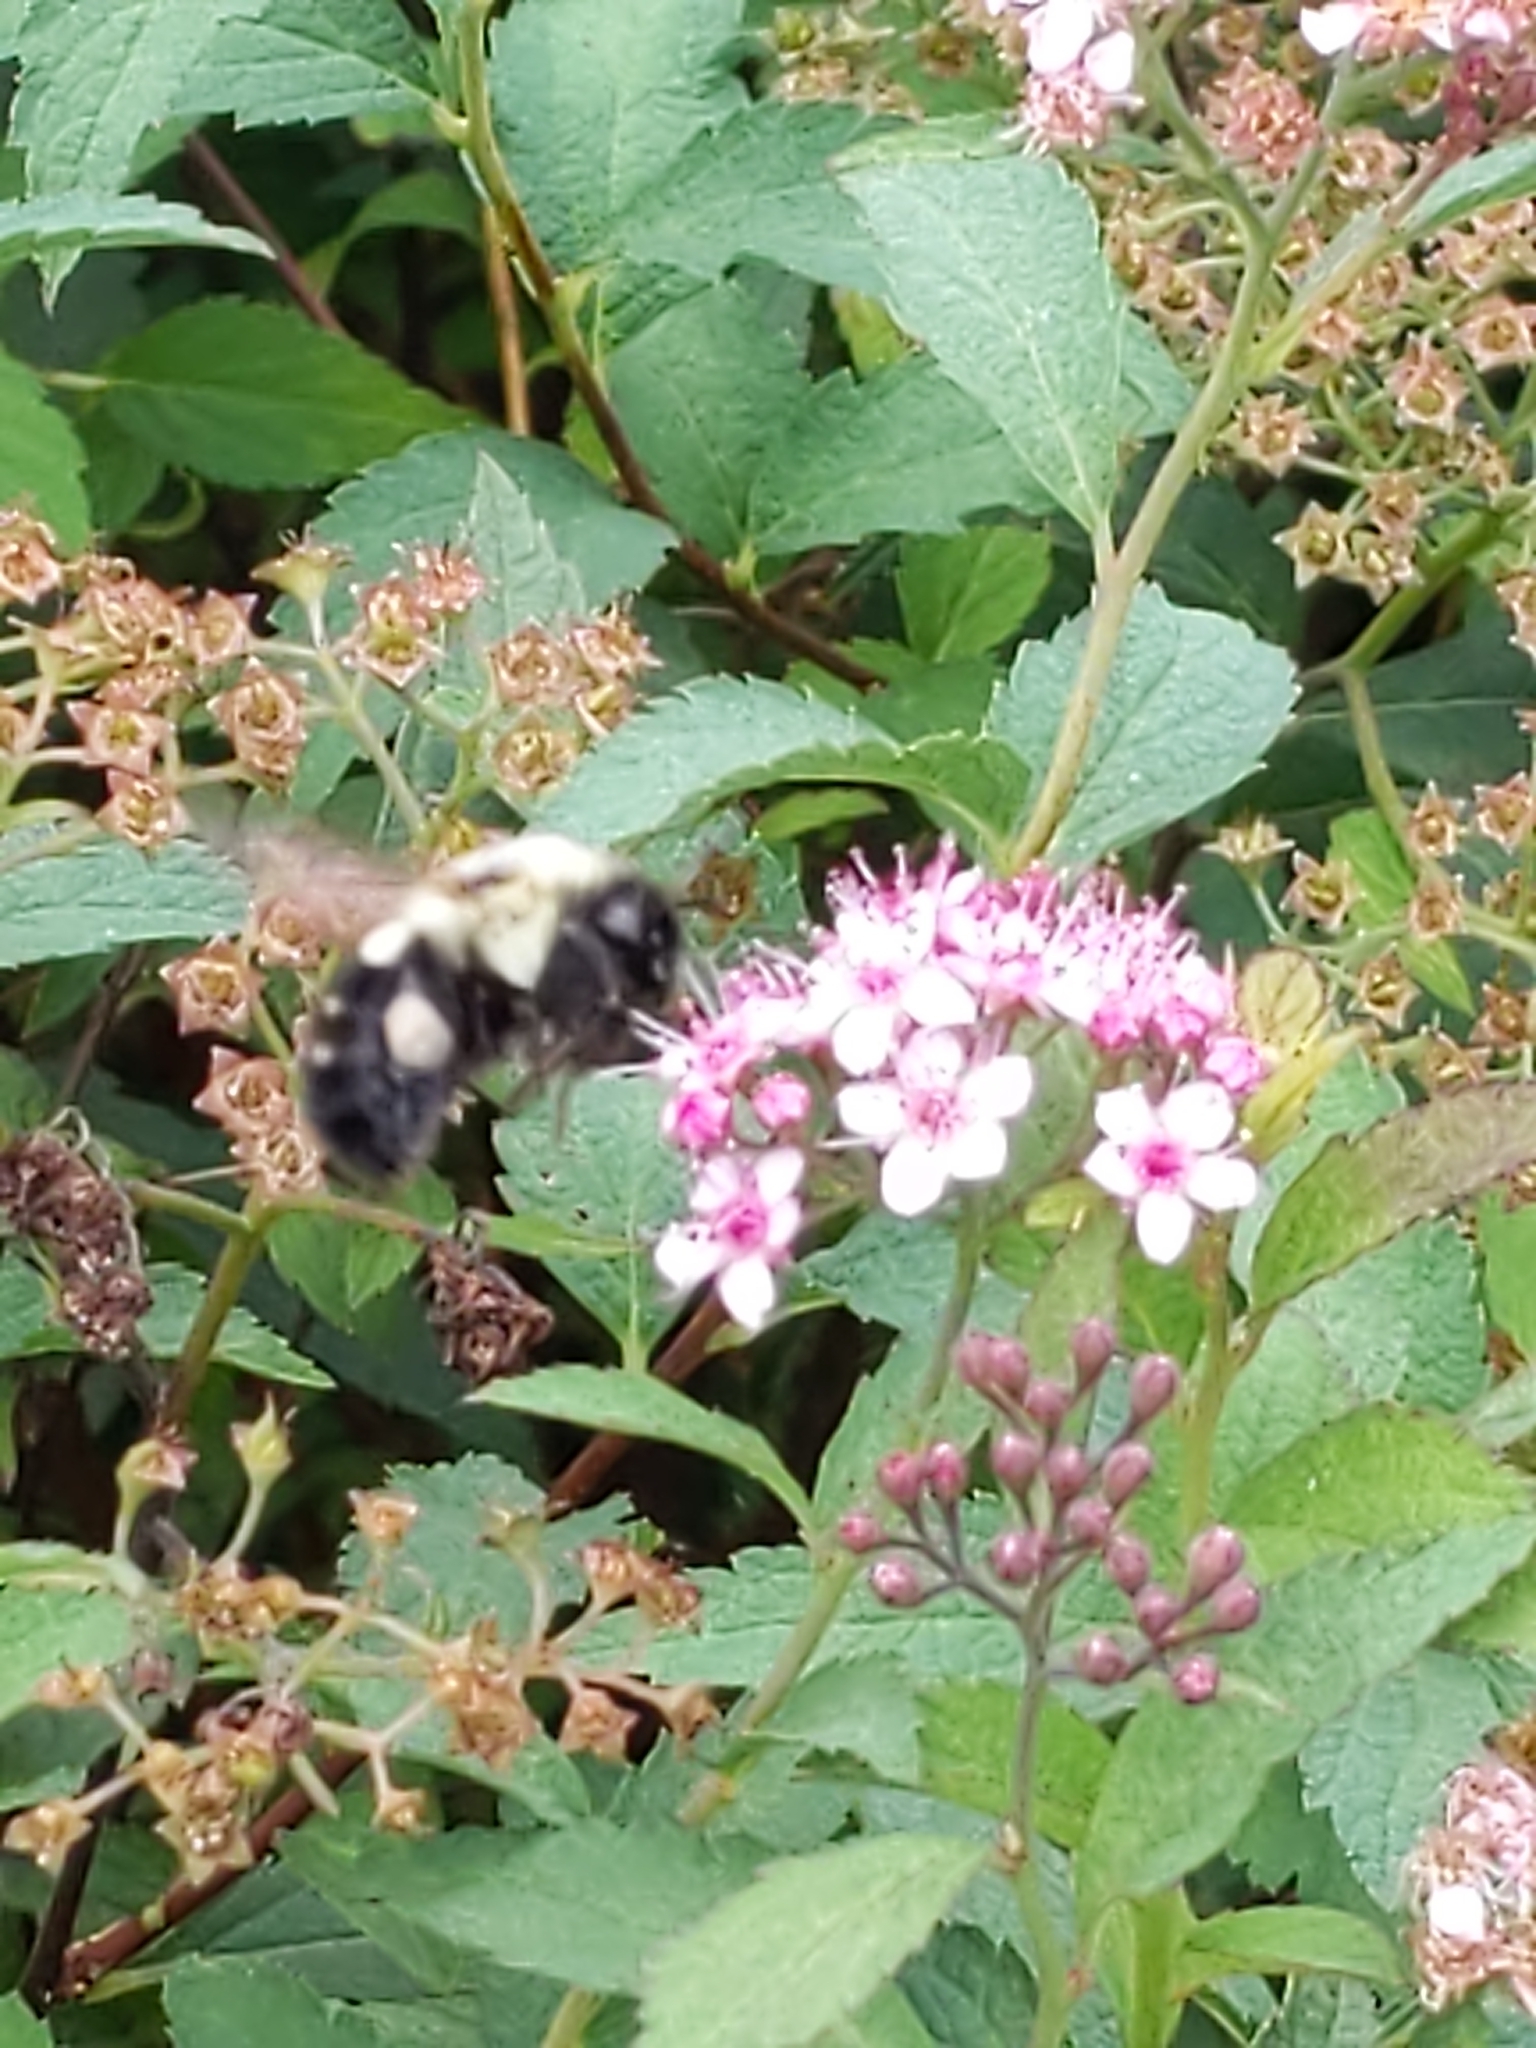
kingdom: Animalia
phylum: Arthropoda
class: Insecta
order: Hymenoptera
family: Apidae
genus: Bombus
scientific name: Bombus impatiens
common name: Common eastern bumble bee
